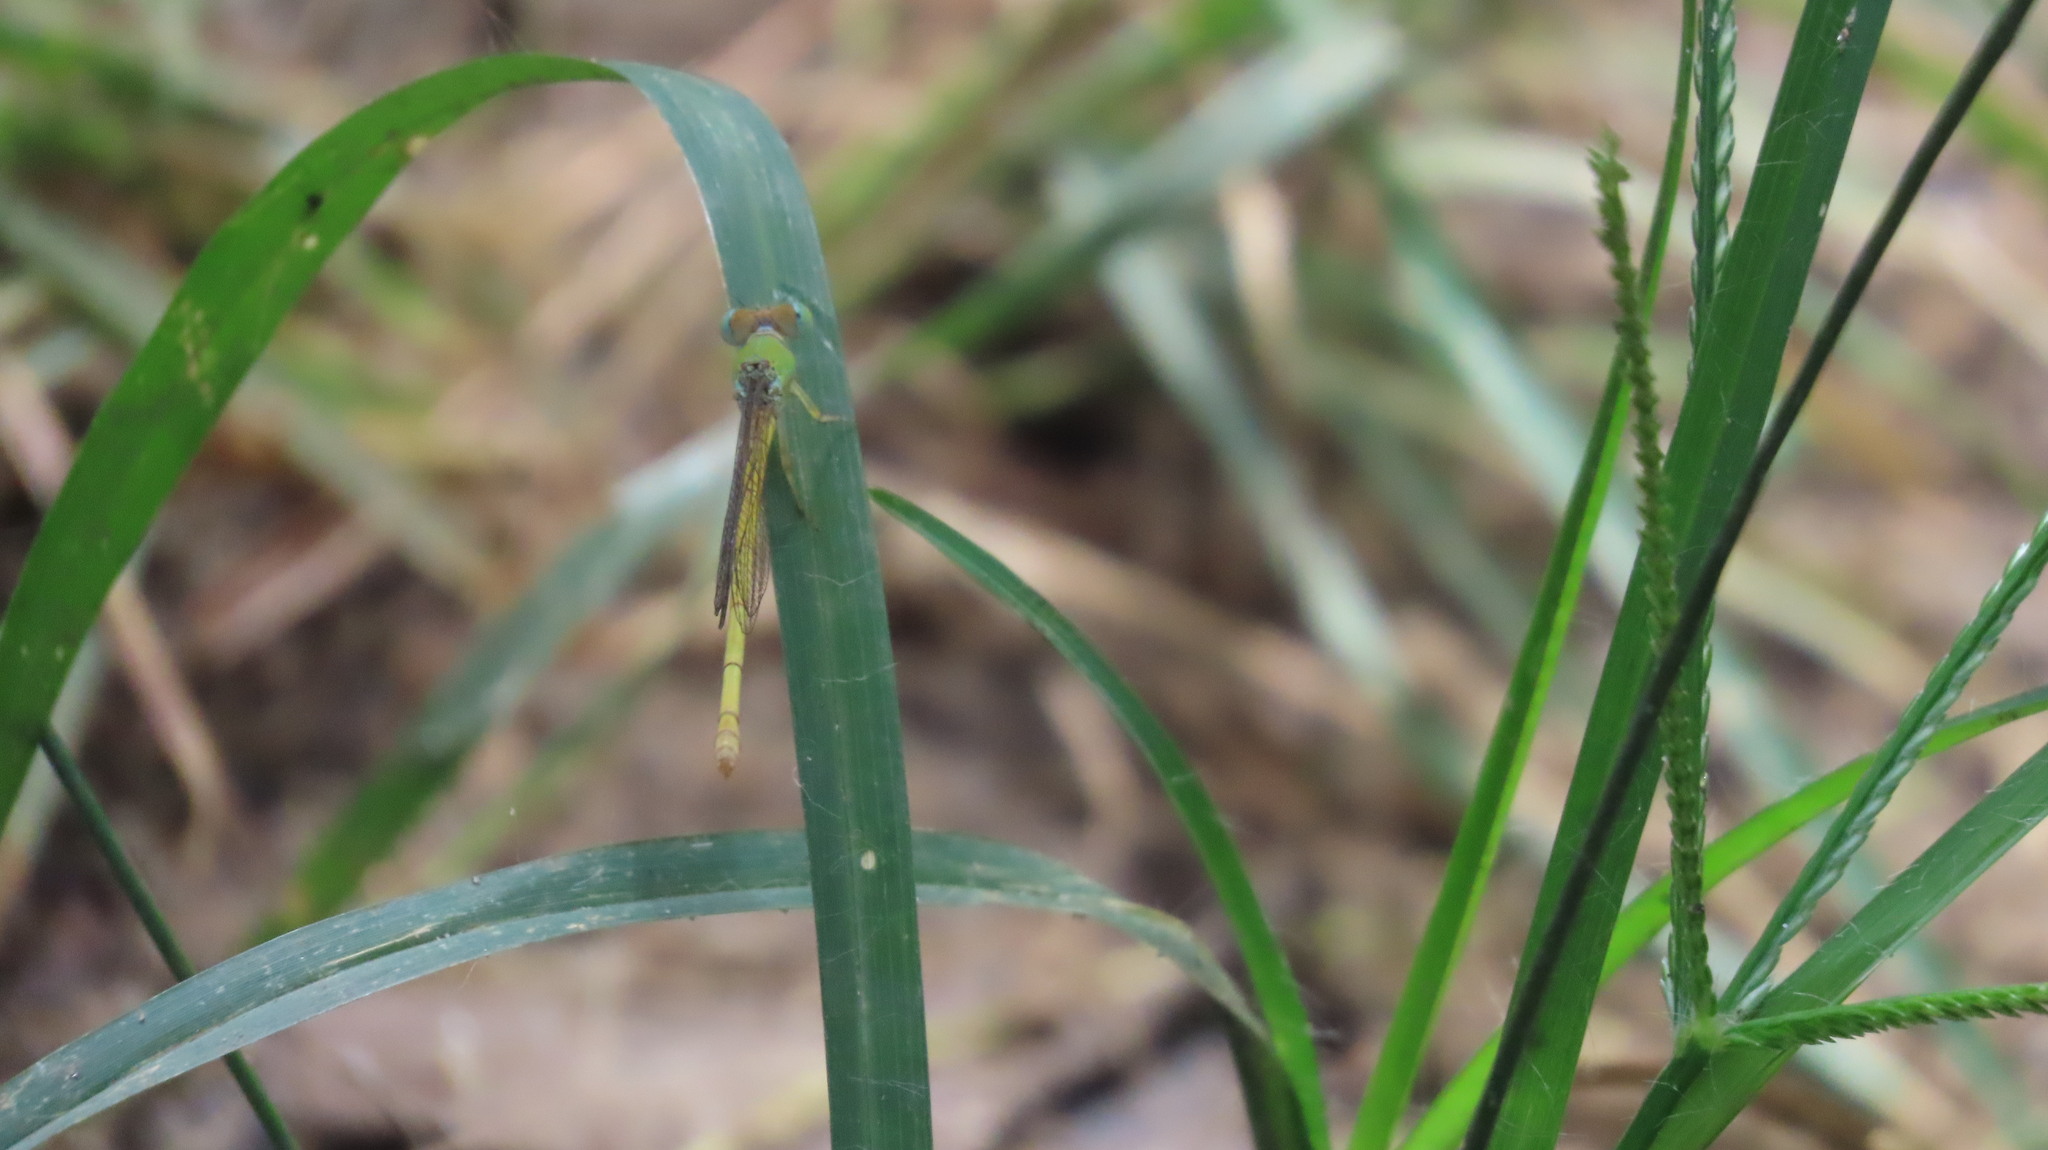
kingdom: Animalia
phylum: Arthropoda
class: Insecta
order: Odonata
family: Coenagrionidae
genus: Ceriagrion
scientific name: Ceriagrion coromandelianum
